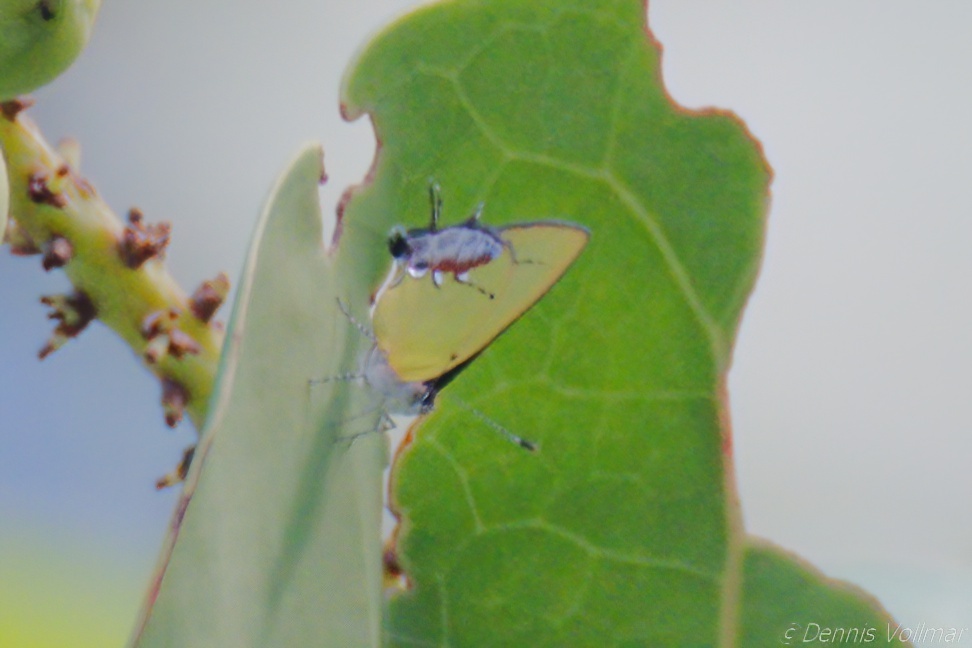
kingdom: Animalia
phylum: Arthropoda
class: Insecta
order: Lepidoptera
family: Lycaenidae
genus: Thecla
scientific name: Thecla maesites
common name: Verde azul hairstreak
